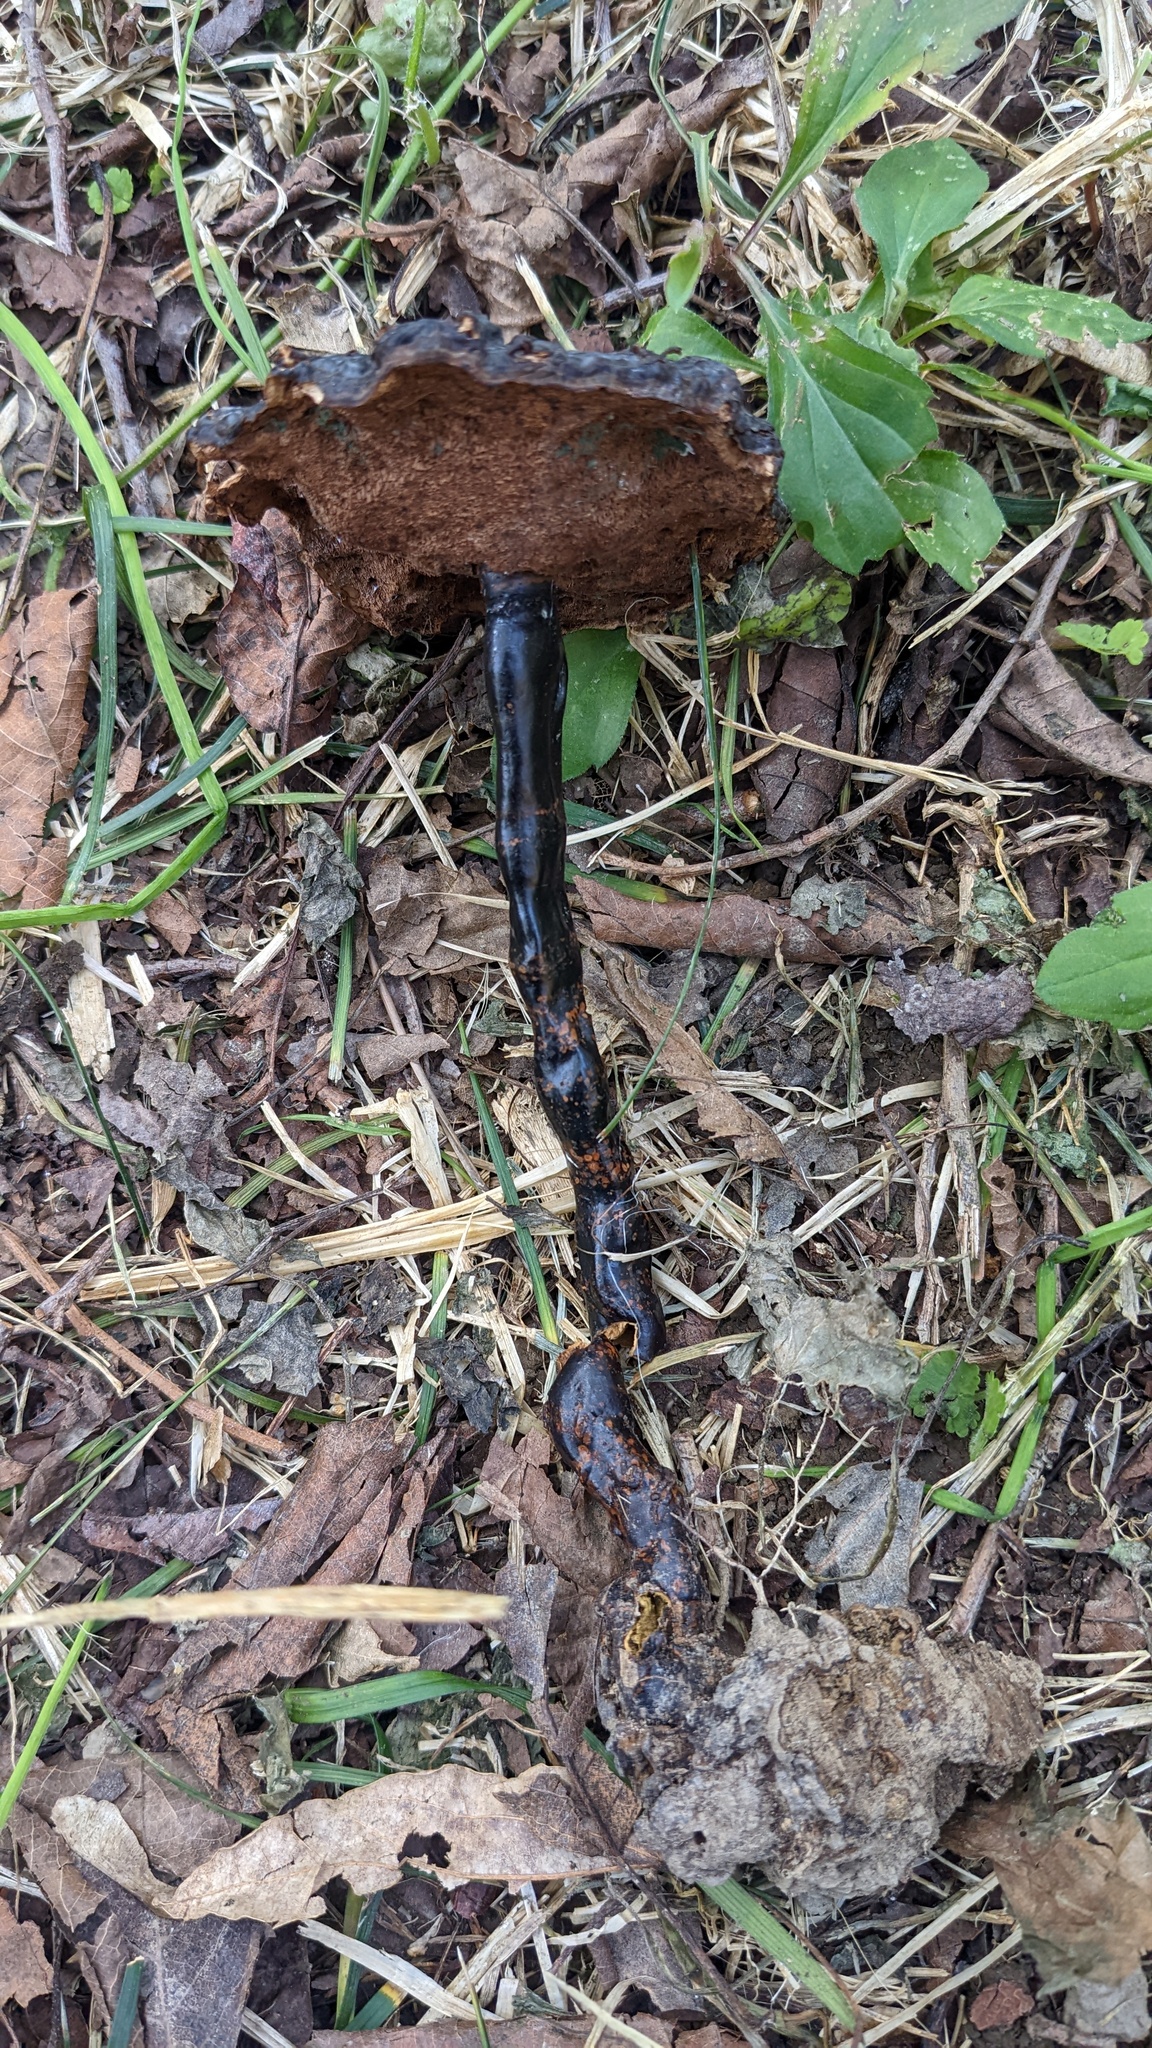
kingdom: Fungi
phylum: Basidiomycota
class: Agaricomycetes
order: Polyporales
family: Polyporaceae
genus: Ganoderma
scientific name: Ganoderma neojaponicum
